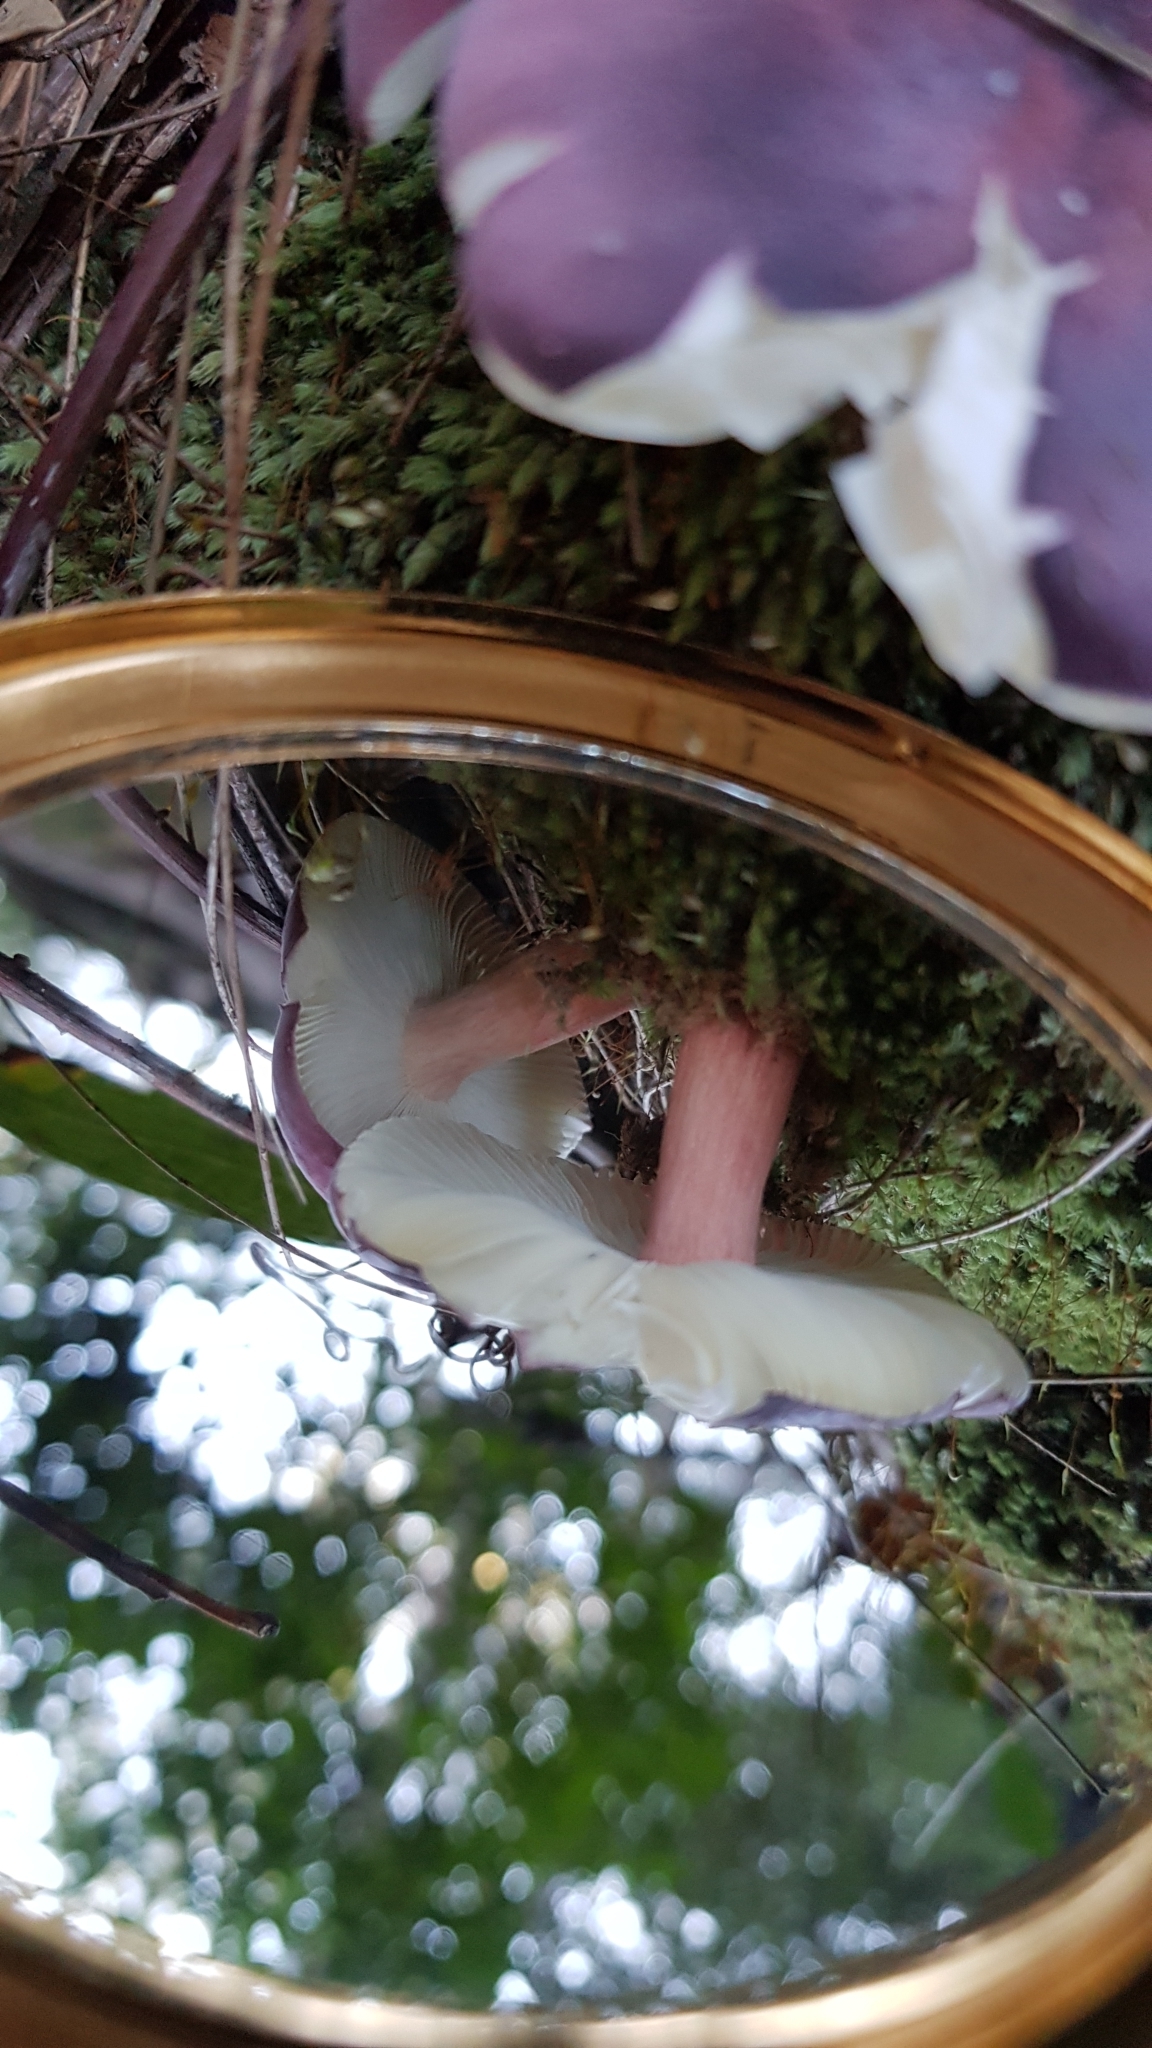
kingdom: Fungi
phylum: Basidiomycota
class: Agaricomycetes
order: Russulales
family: Russulaceae
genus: Russula
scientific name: Russula lenkunya
